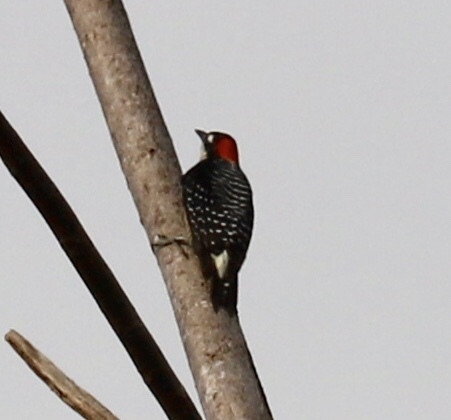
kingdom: Animalia
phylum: Chordata
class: Aves
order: Piciformes
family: Picidae
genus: Melanerpes
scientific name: Melanerpes pucherani
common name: Black-cheeked woodpecker
